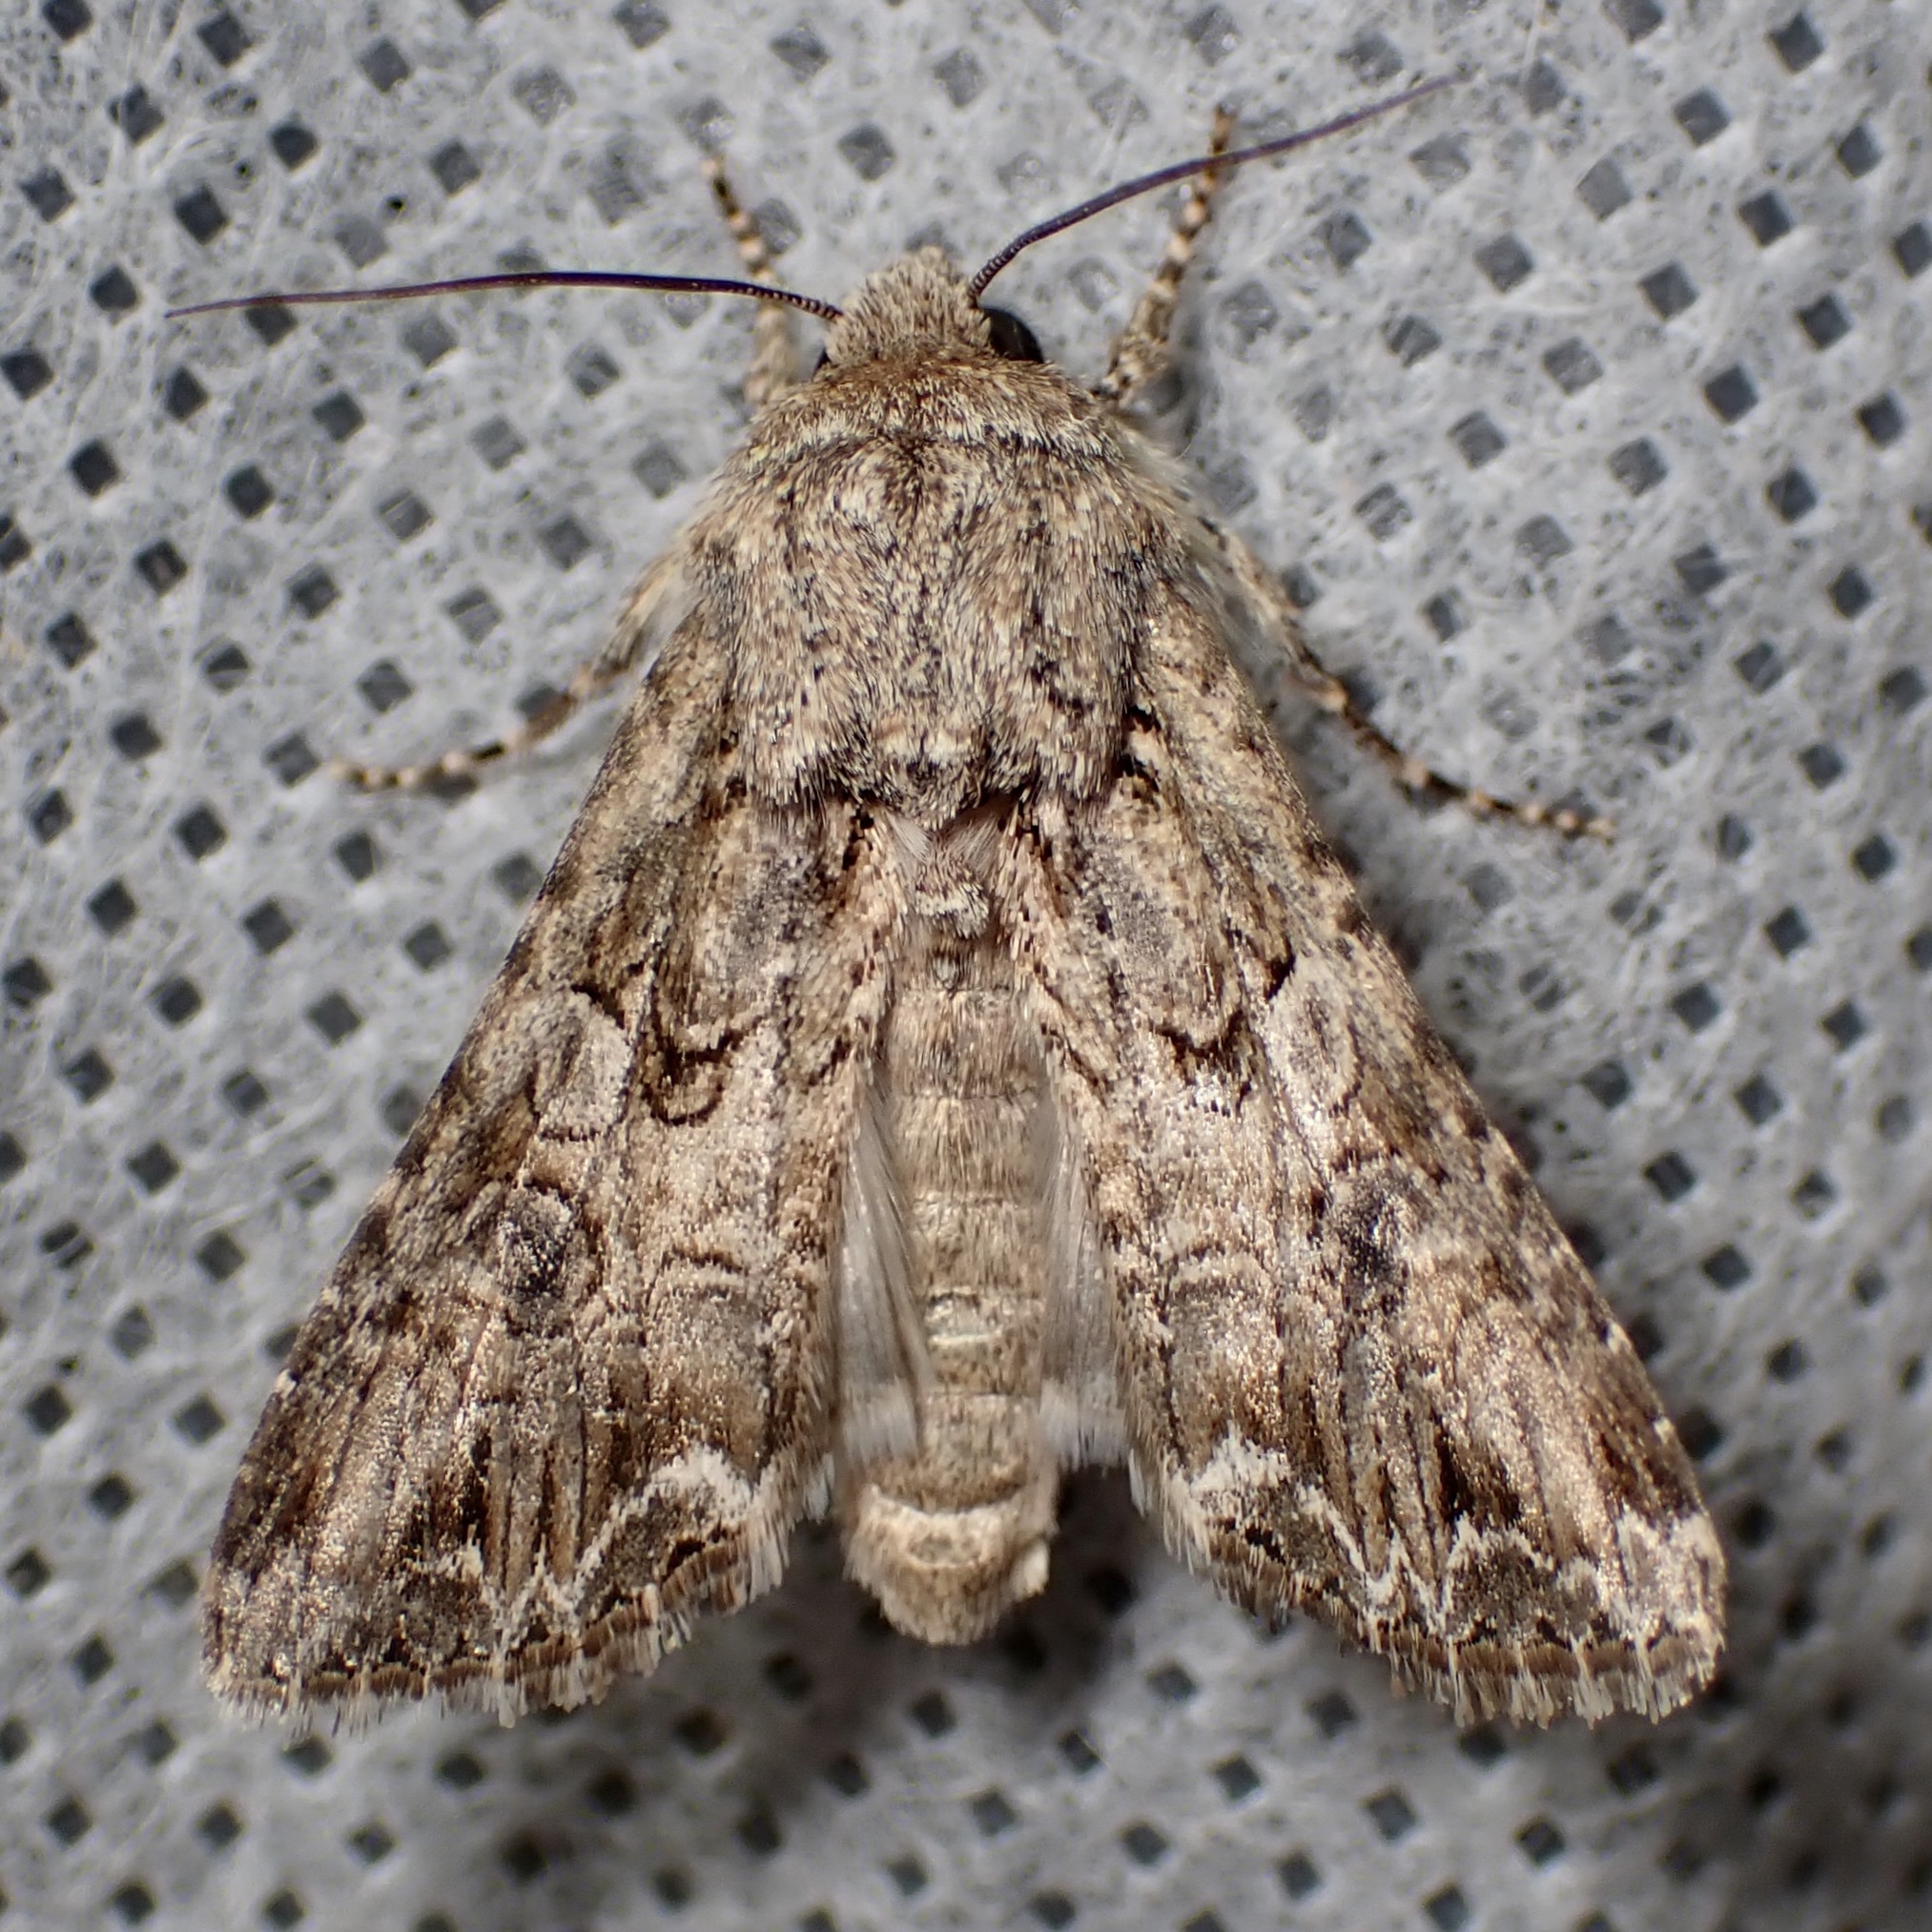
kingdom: Animalia
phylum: Arthropoda
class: Insecta
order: Lepidoptera
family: Noctuidae
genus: Anarta
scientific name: Anarta mutata
